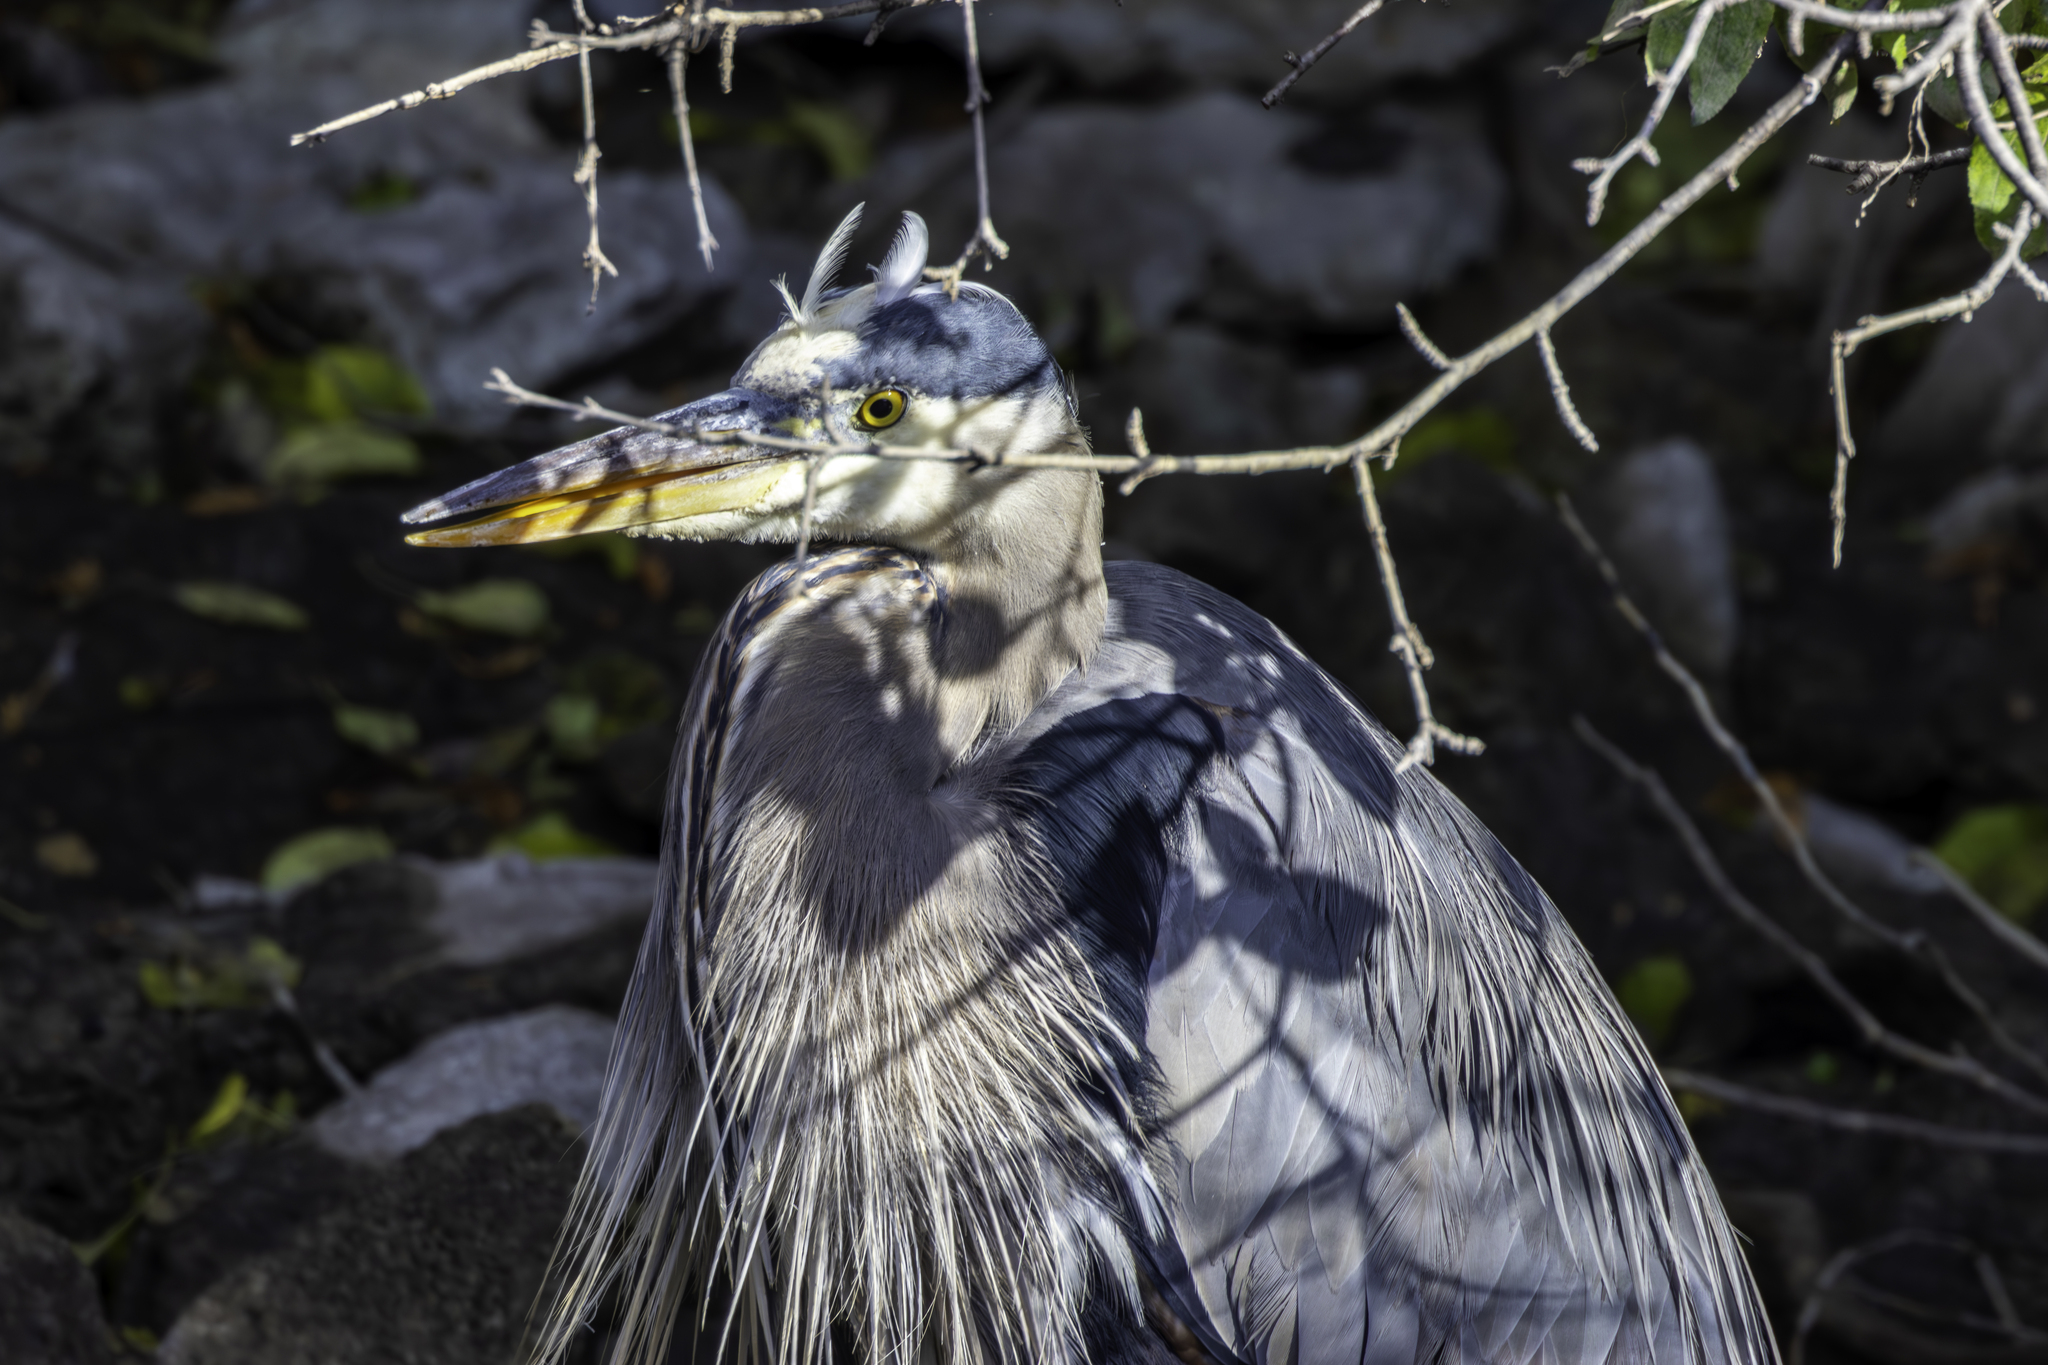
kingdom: Animalia
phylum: Chordata
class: Aves
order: Pelecaniformes
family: Ardeidae
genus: Ardea
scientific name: Ardea herodias
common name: Great blue heron
